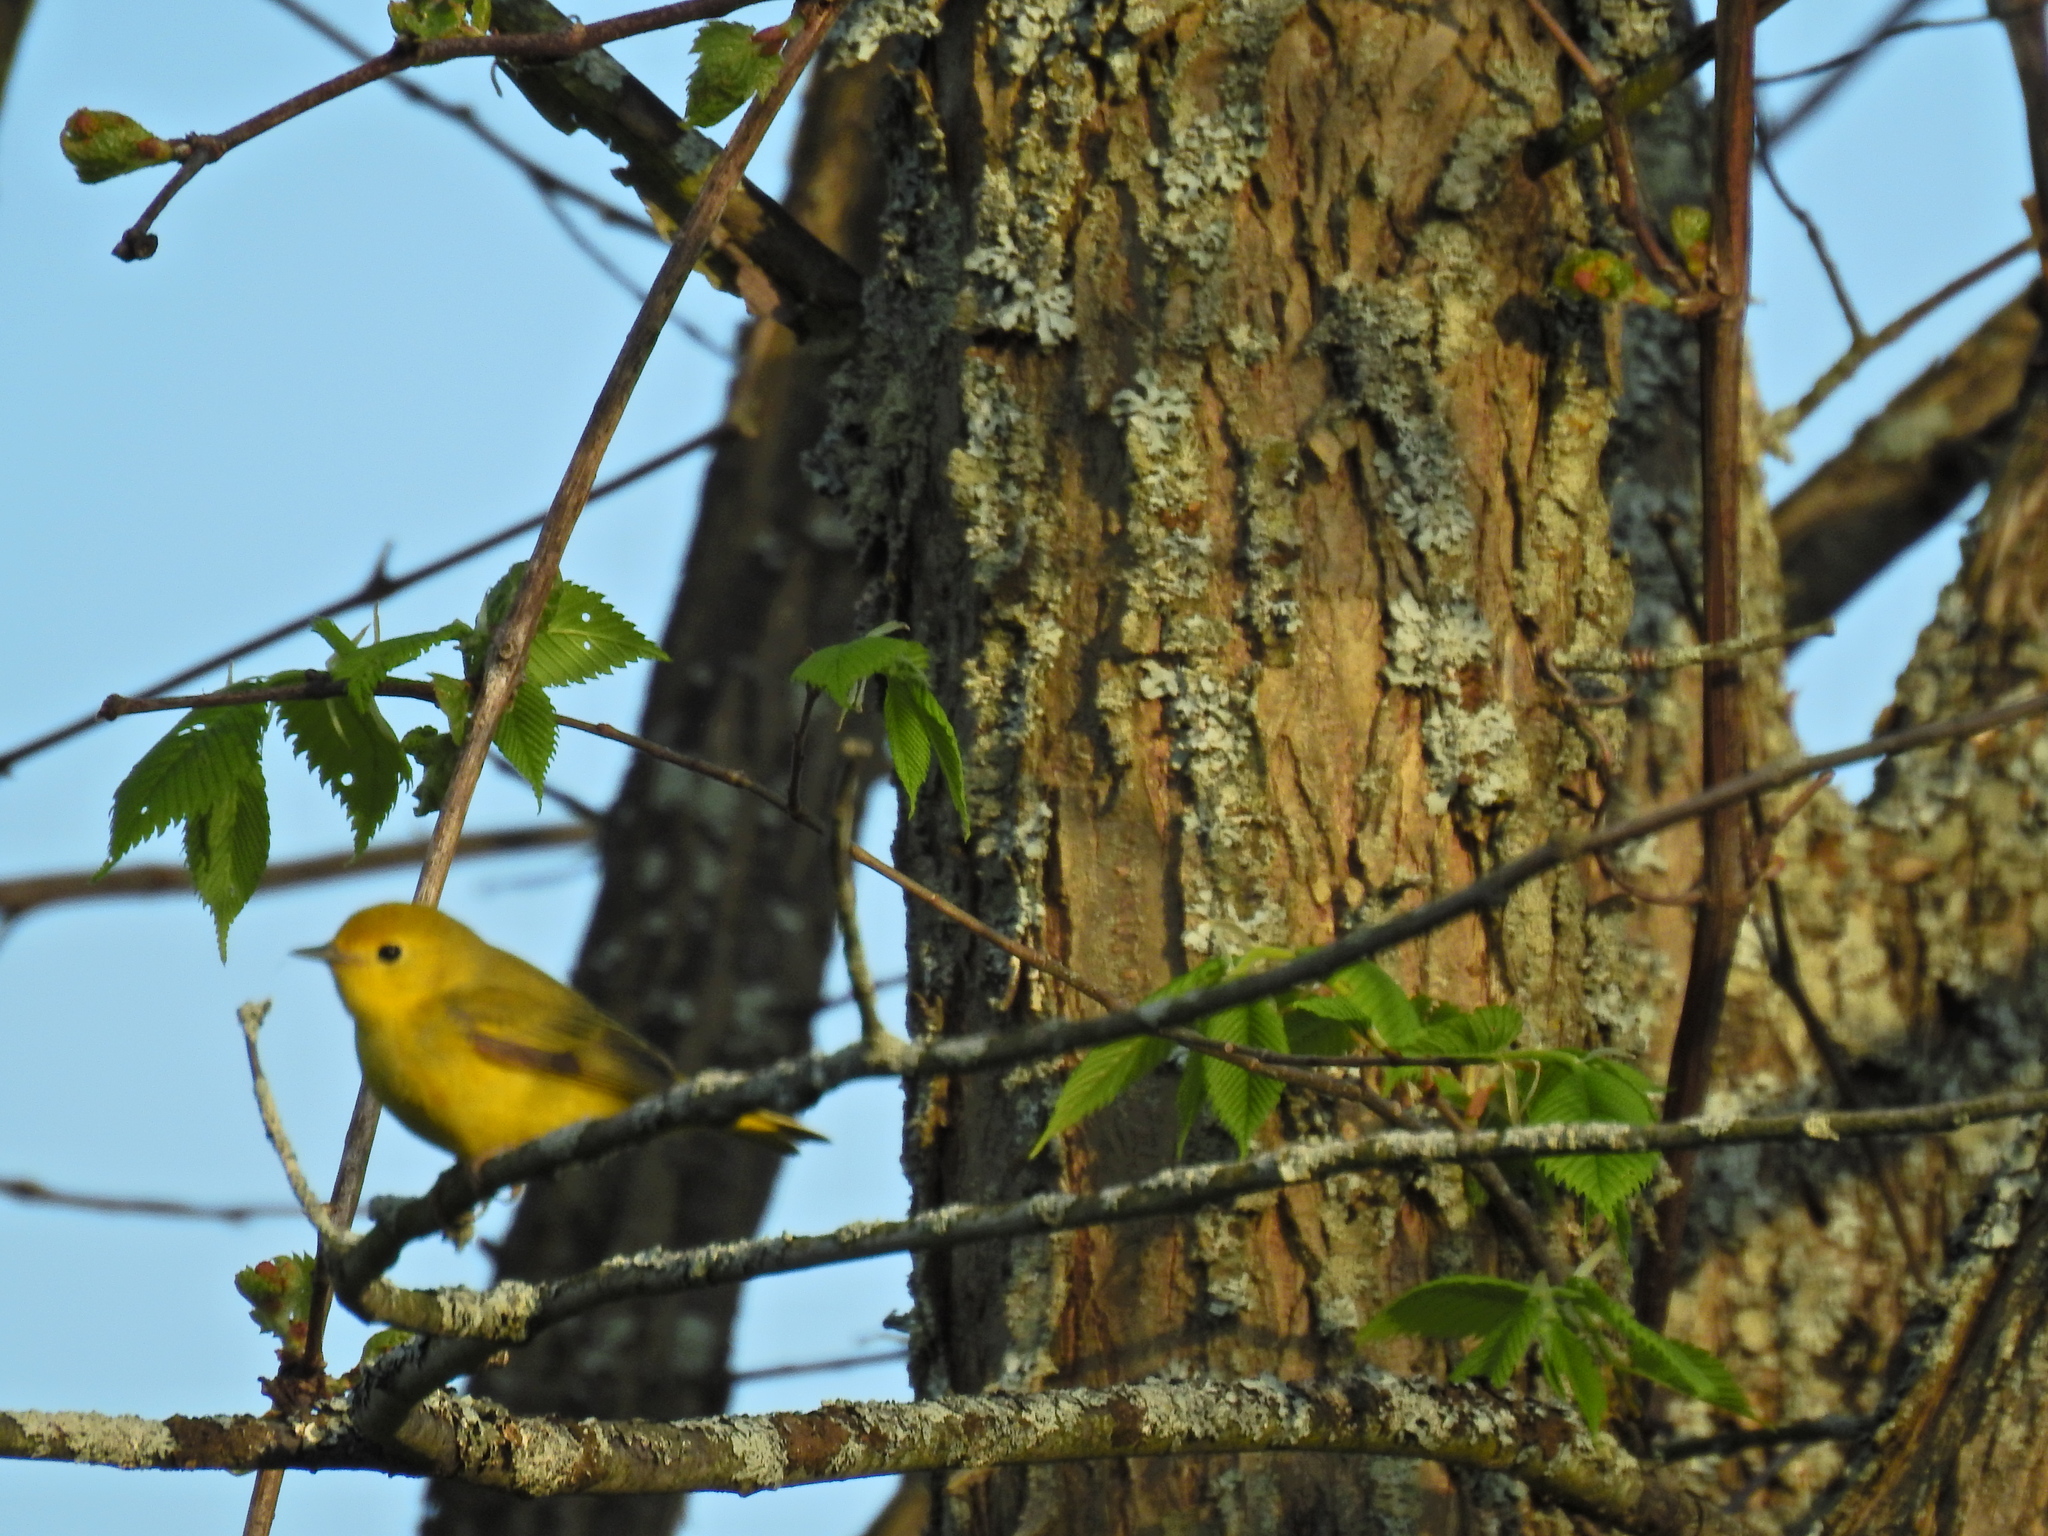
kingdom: Animalia
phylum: Chordata
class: Aves
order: Passeriformes
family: Parulidae
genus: Setophaga
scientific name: Setophaga petechia
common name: Yellow warbler
